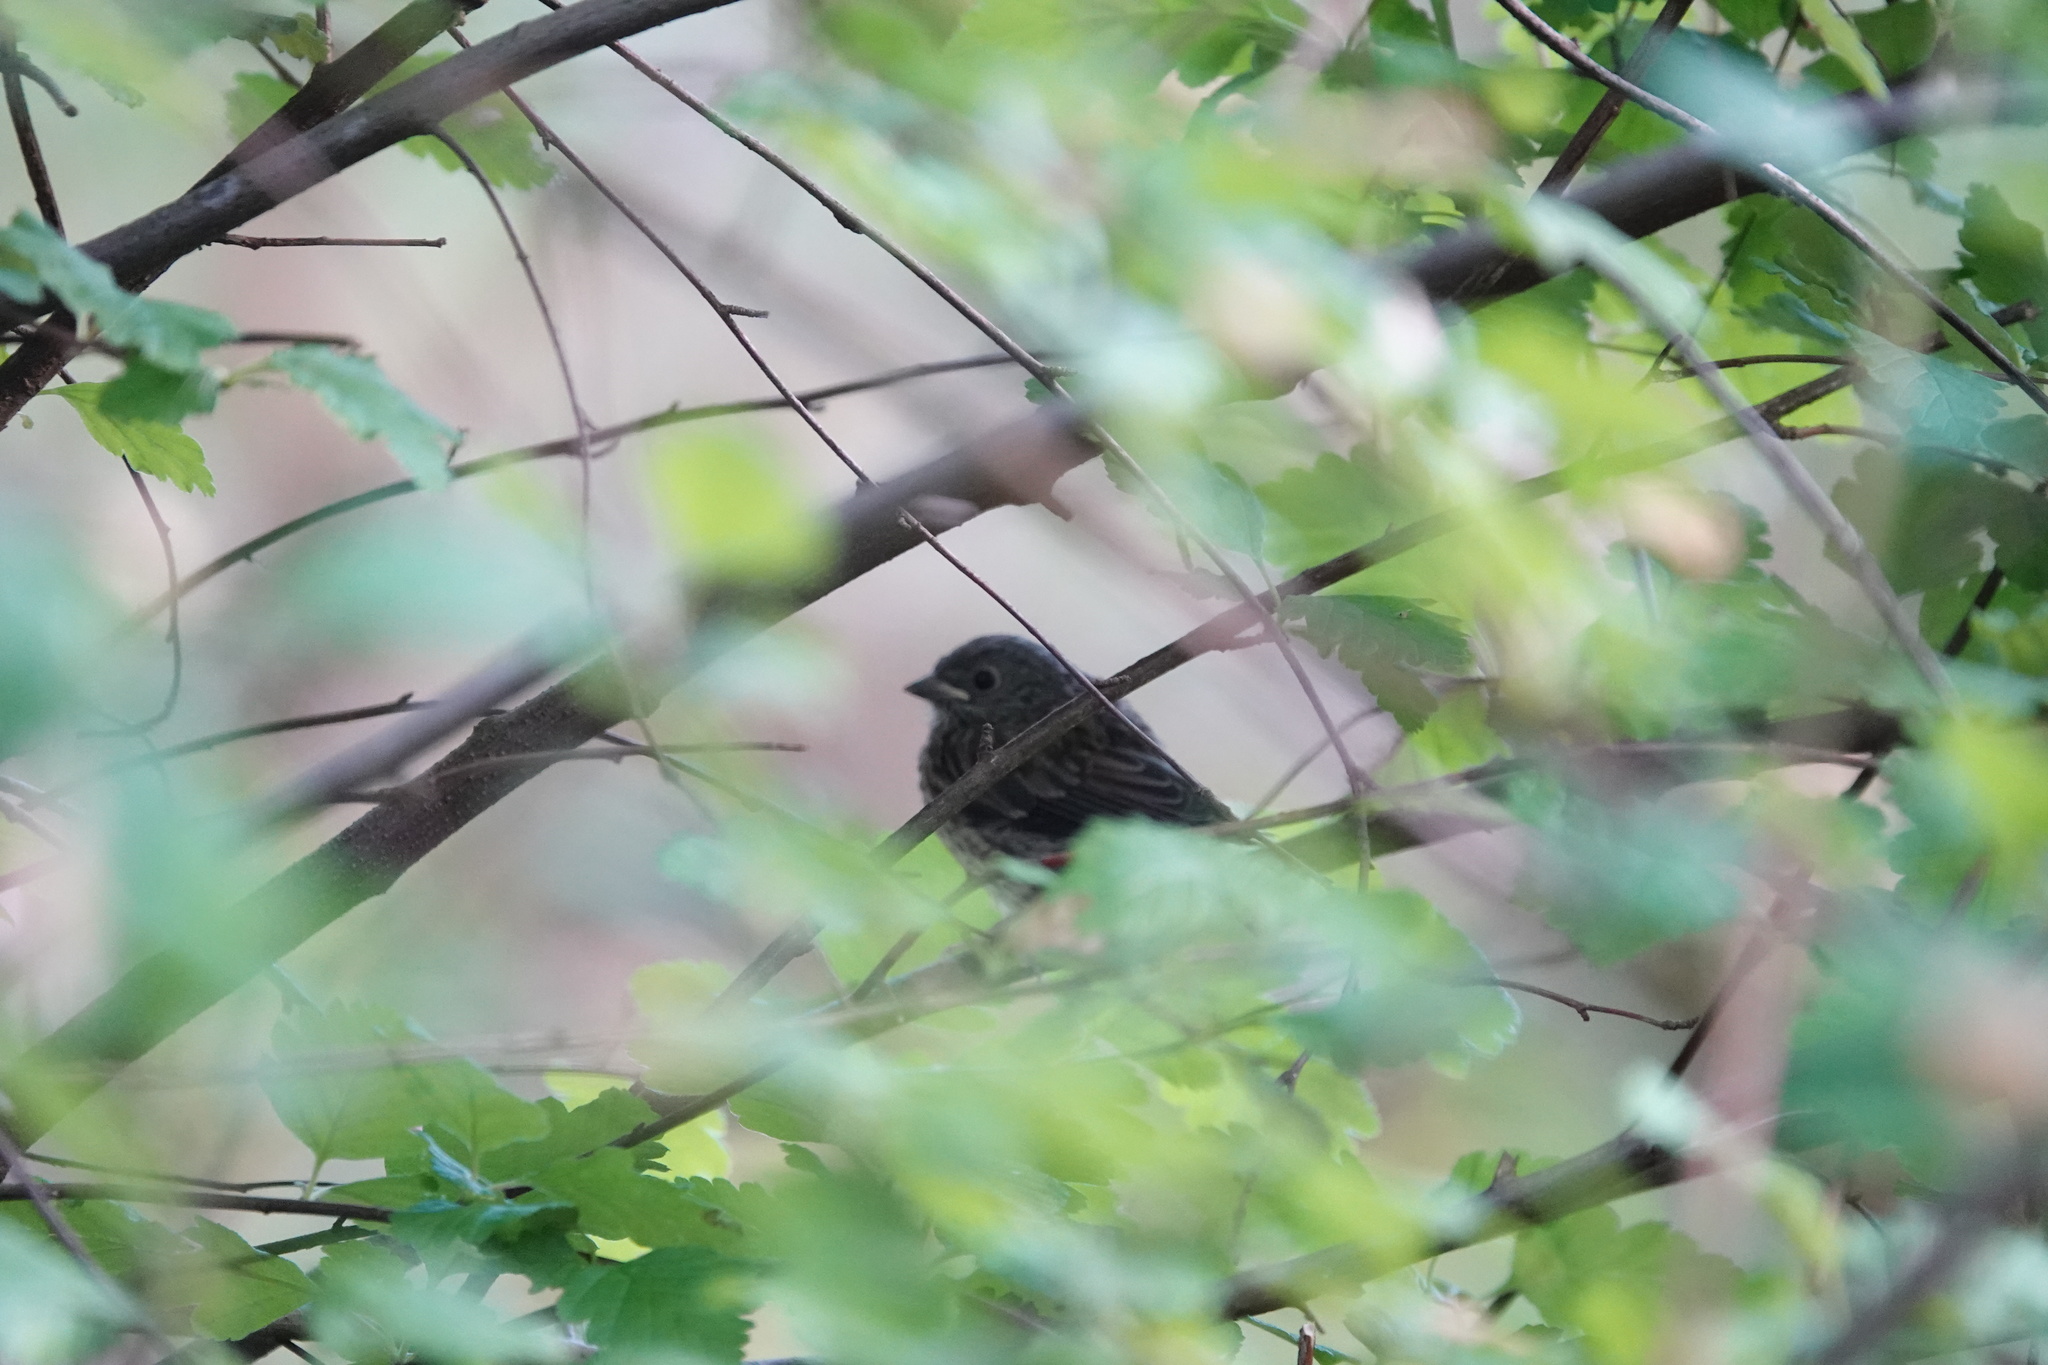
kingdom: Animalia
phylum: Chordata
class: Aves
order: Passeriformes
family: Passerellidae
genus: Junco
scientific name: Junco hyemalis
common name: Dark-eyed junco
